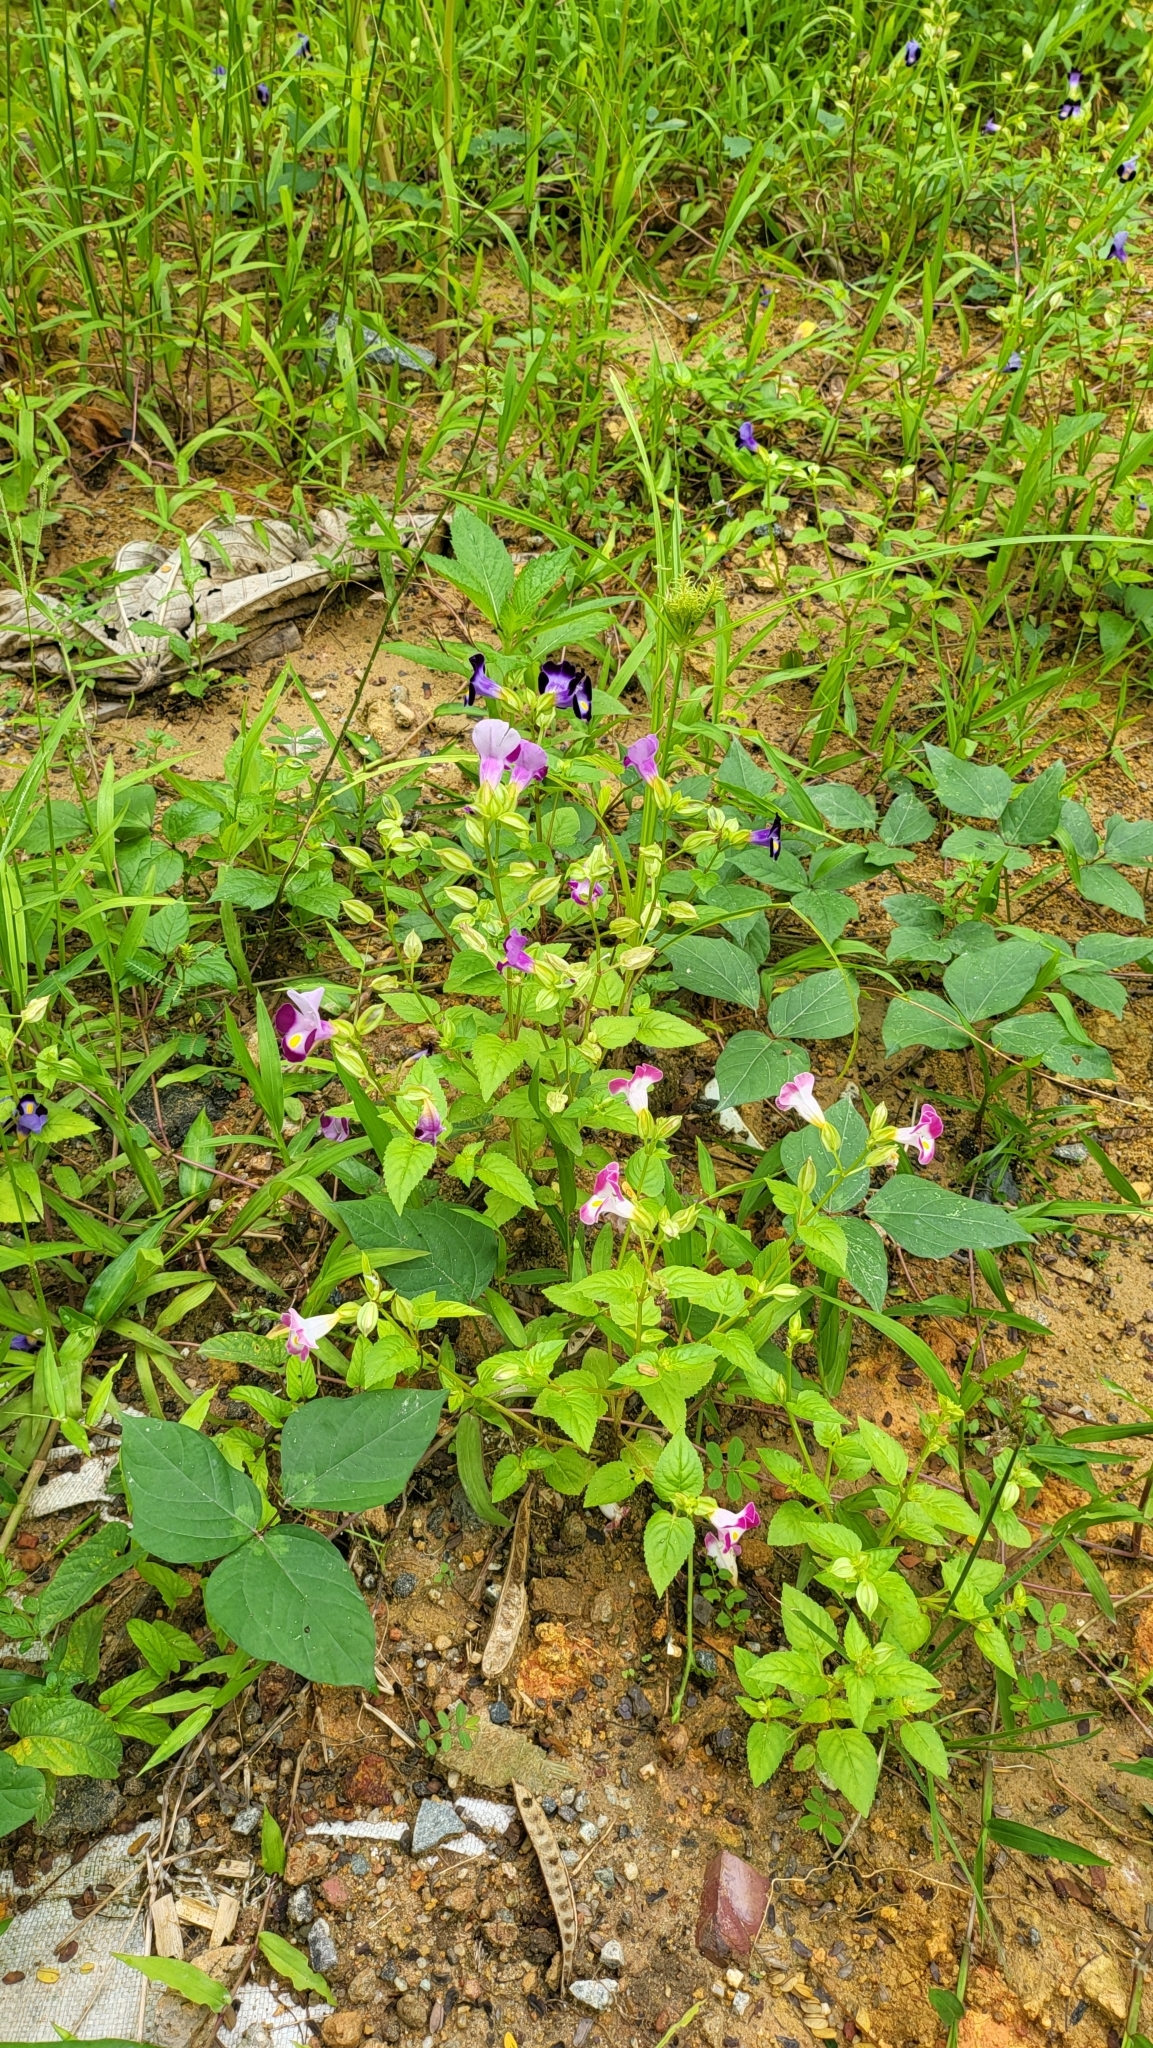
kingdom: Plantae
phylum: Tracheophyta
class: Magnoliopsida
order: Lamiales
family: Linderniaceae
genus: Torenia
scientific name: Torenia fournieri
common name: Bluewings
